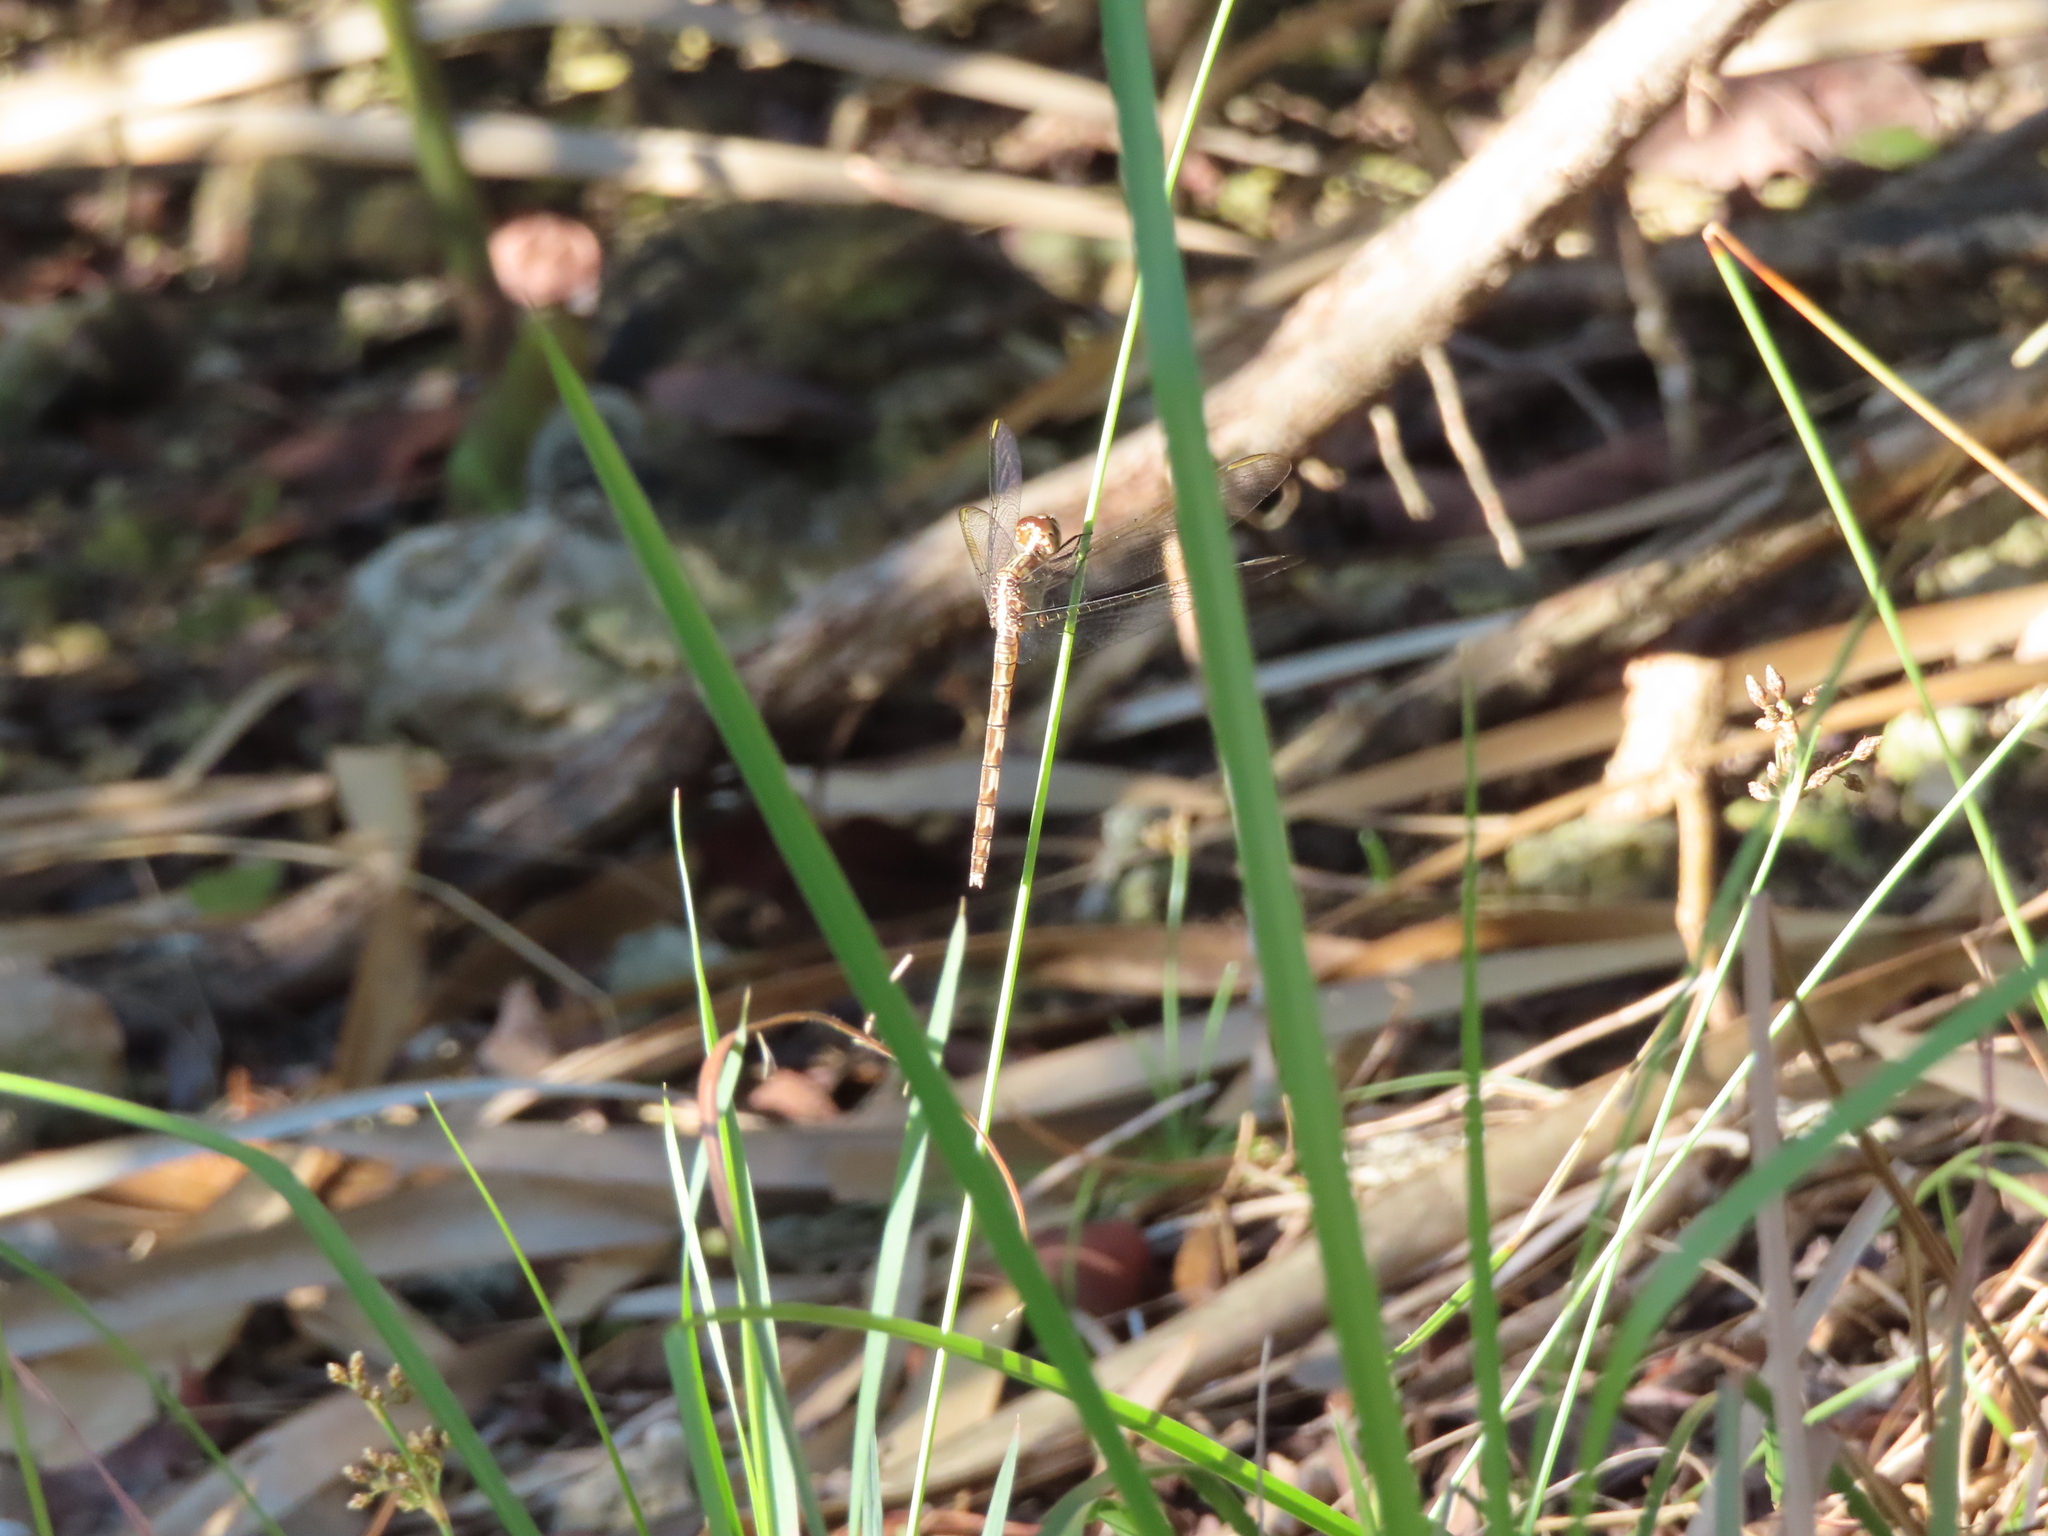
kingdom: Animalia
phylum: Arthropoda
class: Insecta
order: Odonata
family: Libellulidae
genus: Erythrodiplax
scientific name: Erythrodiplax umbrata
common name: Band-winged dragonlet
